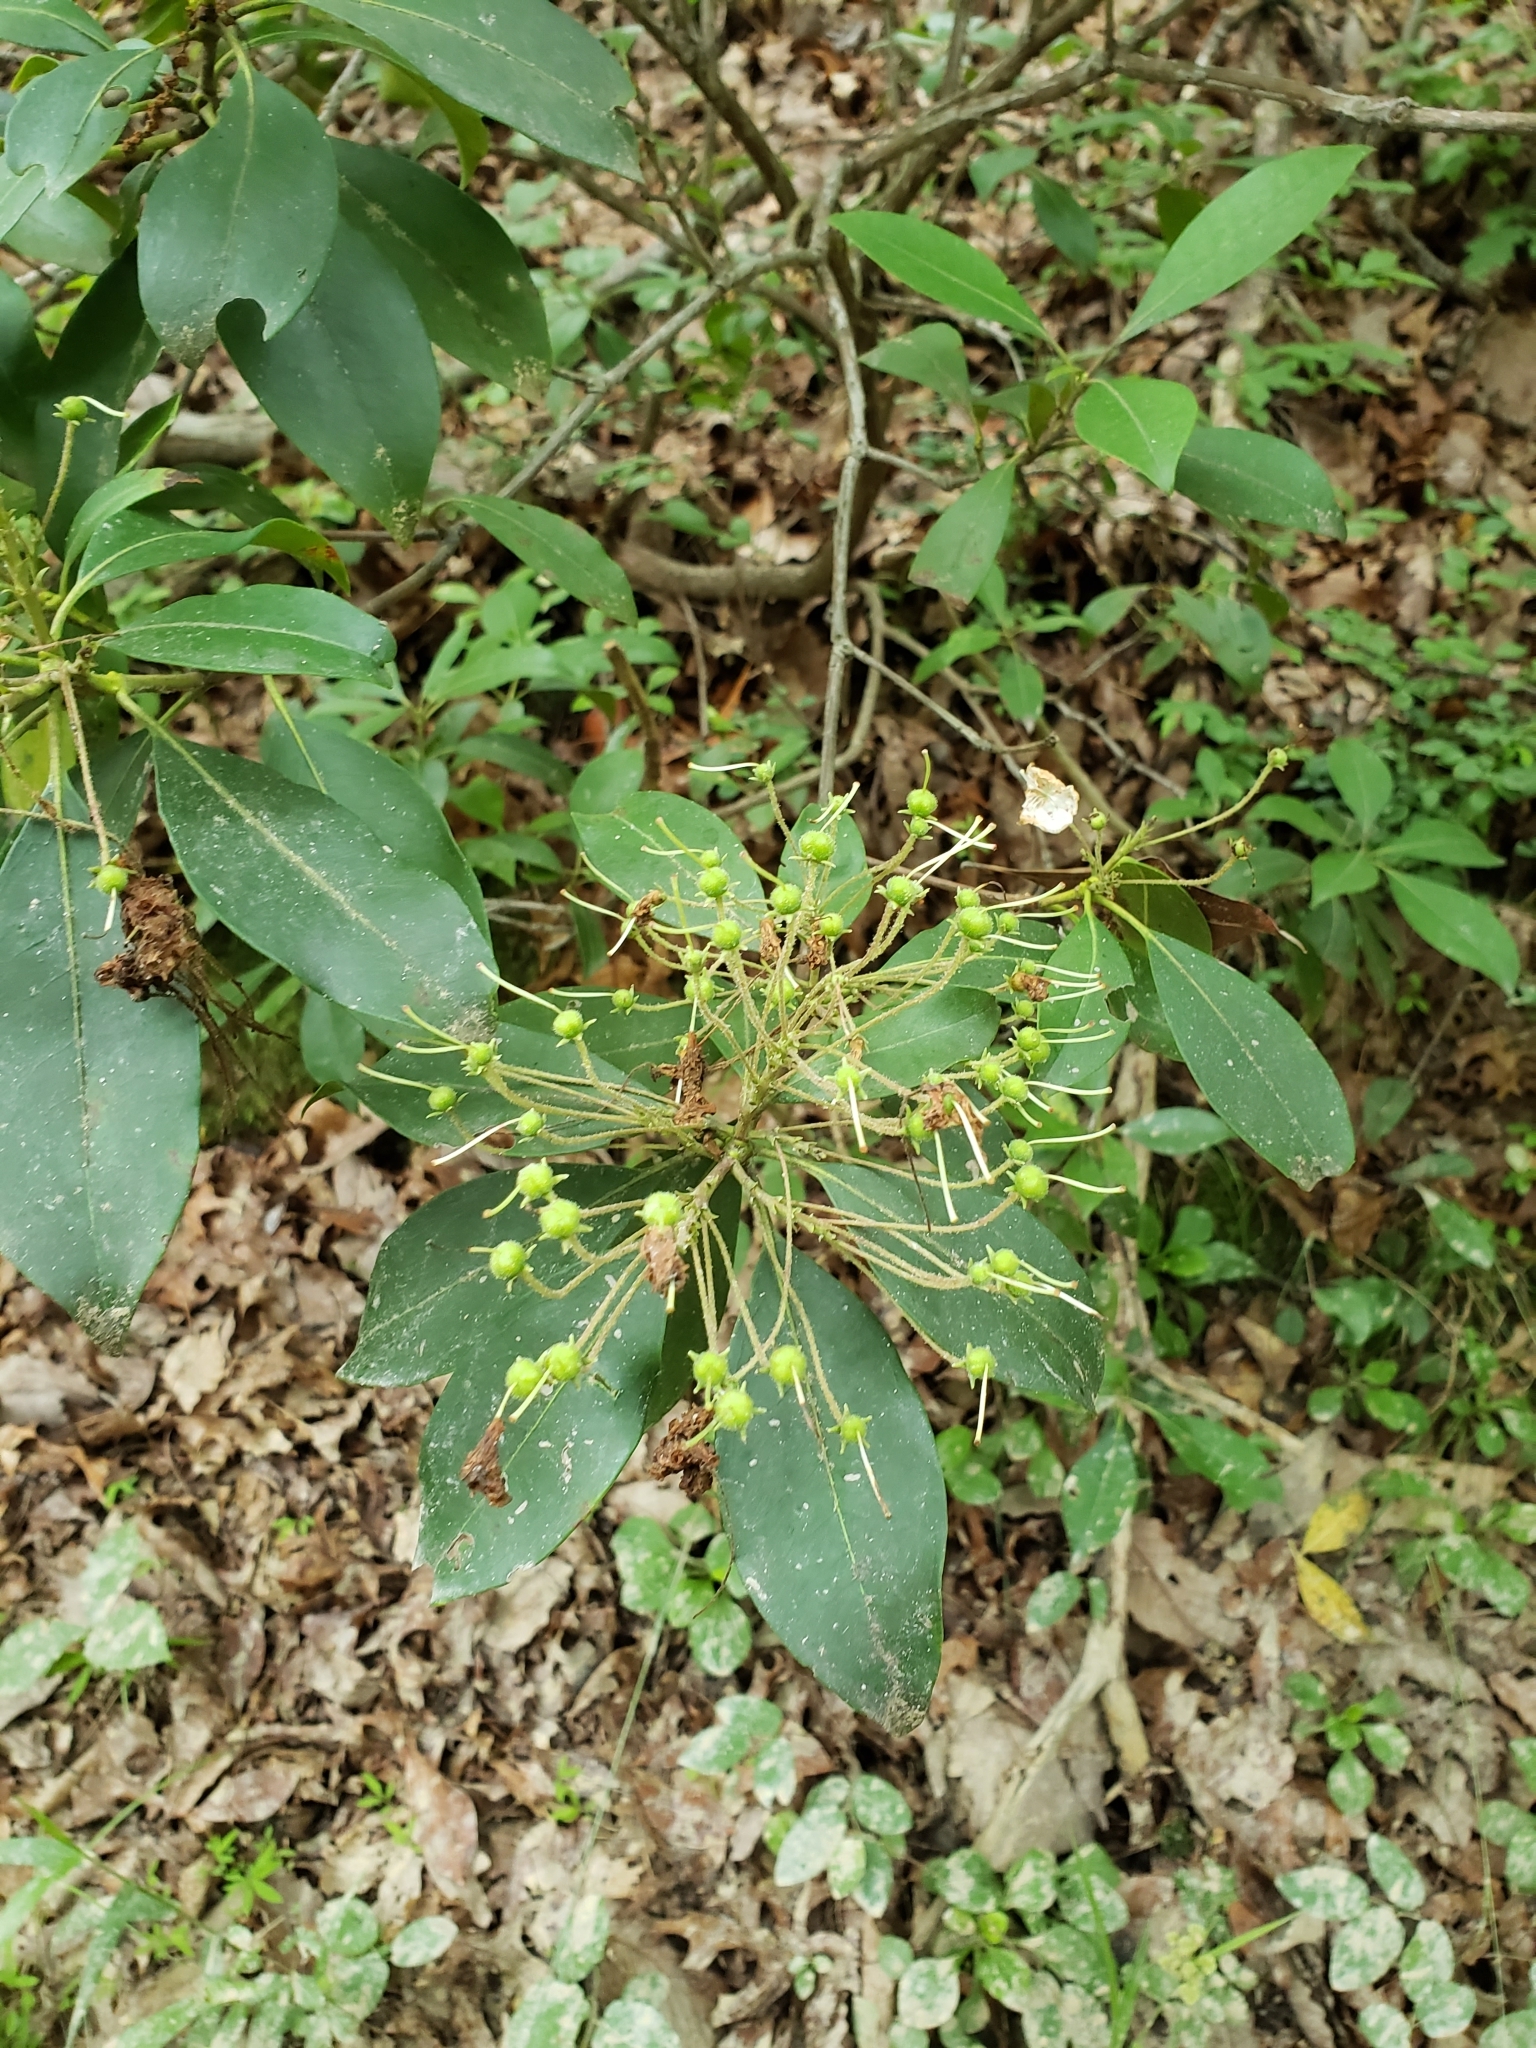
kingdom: Plantae
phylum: Tracheophyta
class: Magnoliopsida
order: Ericales
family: Ericaceae
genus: Kalmia
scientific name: Kalmia latifolia
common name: Mountain-laurel
